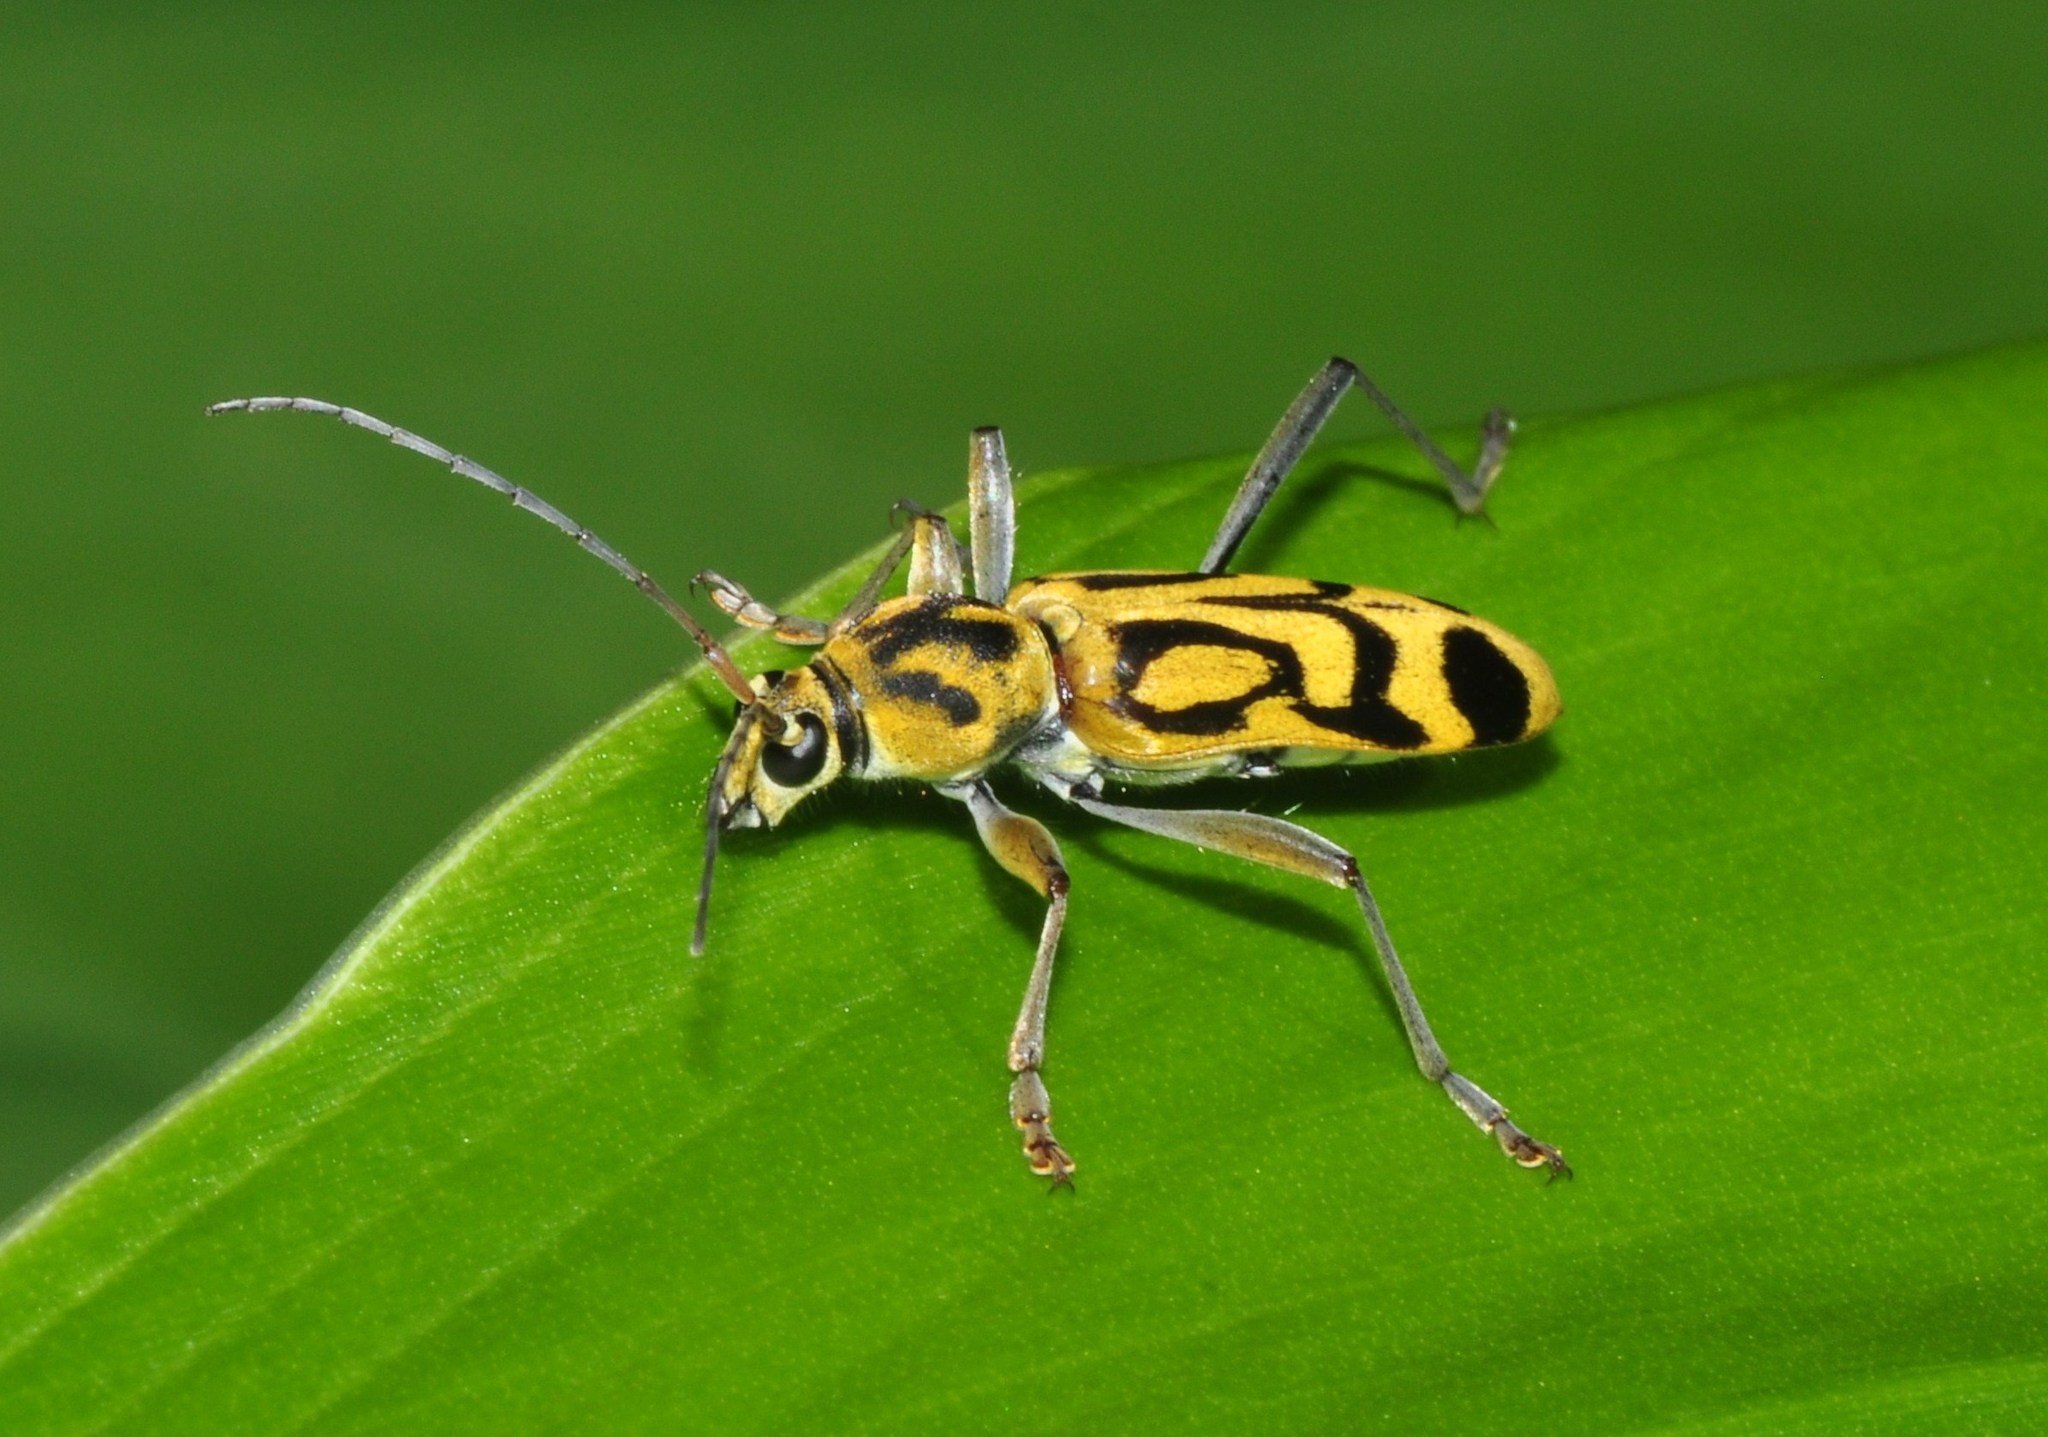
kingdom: Animalia
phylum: Arthropoda
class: Insecta
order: Coleoptera
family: Cerambycidae
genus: Chlorophorus
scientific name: Chlorophorus annularis
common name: Bamboo longhorn beetle
